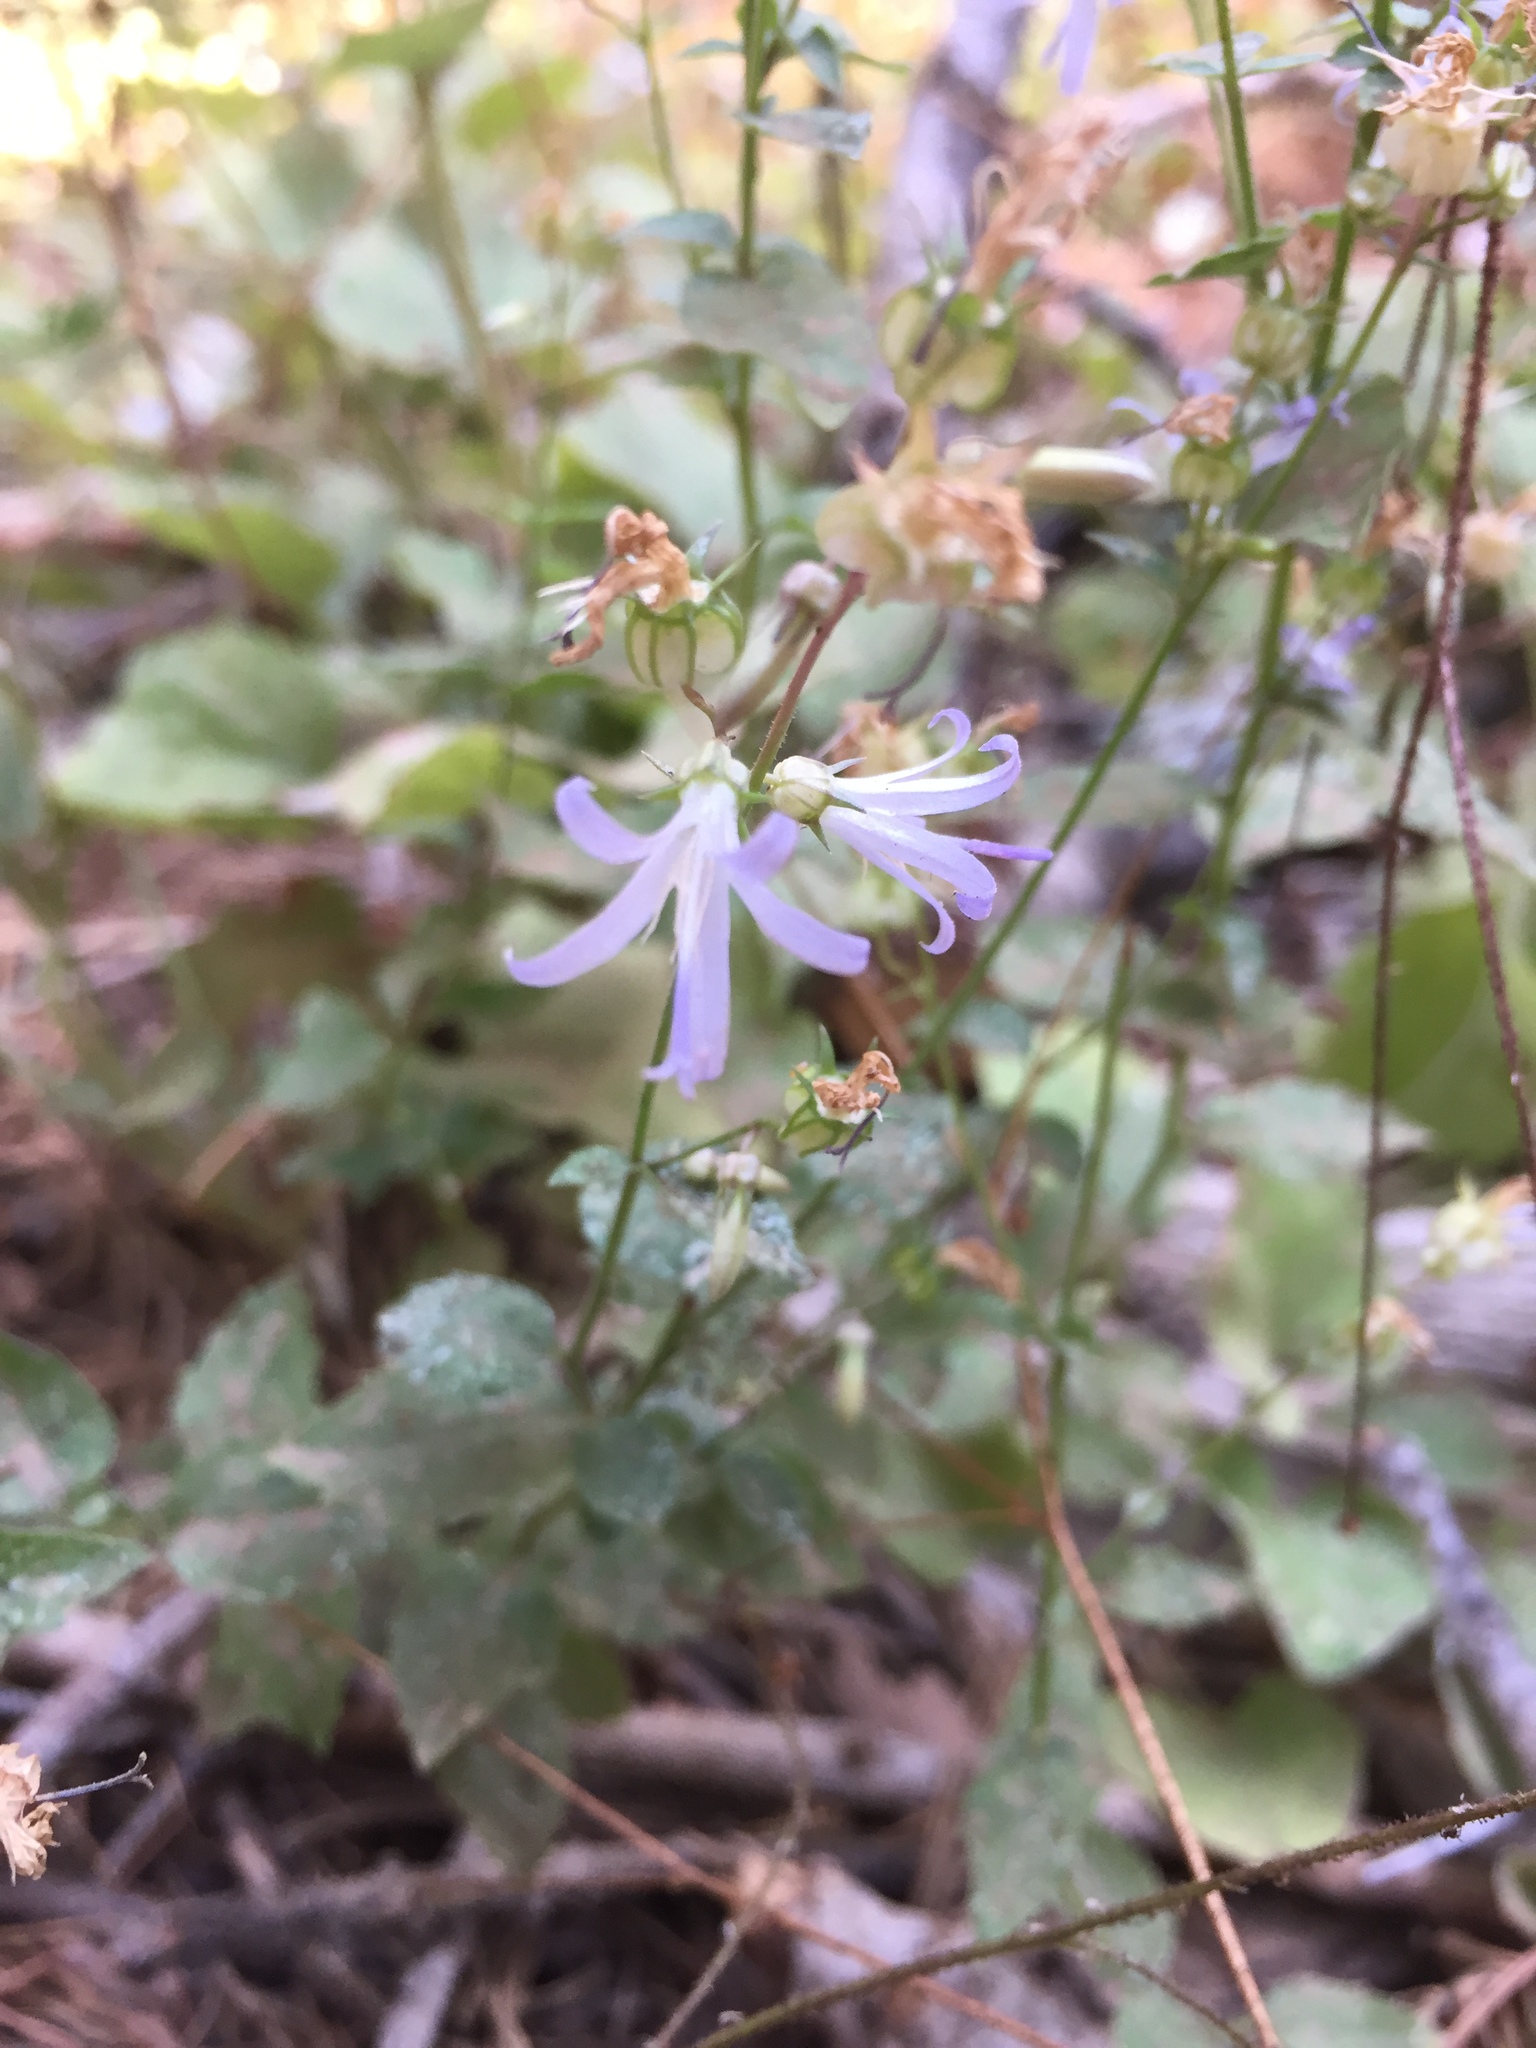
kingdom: Plantae
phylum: Tracheophyta
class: Magnoliopsida
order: Asterales
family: Campanulaceae
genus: Smithiastrum
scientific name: Smithiastrum prenanthoides
